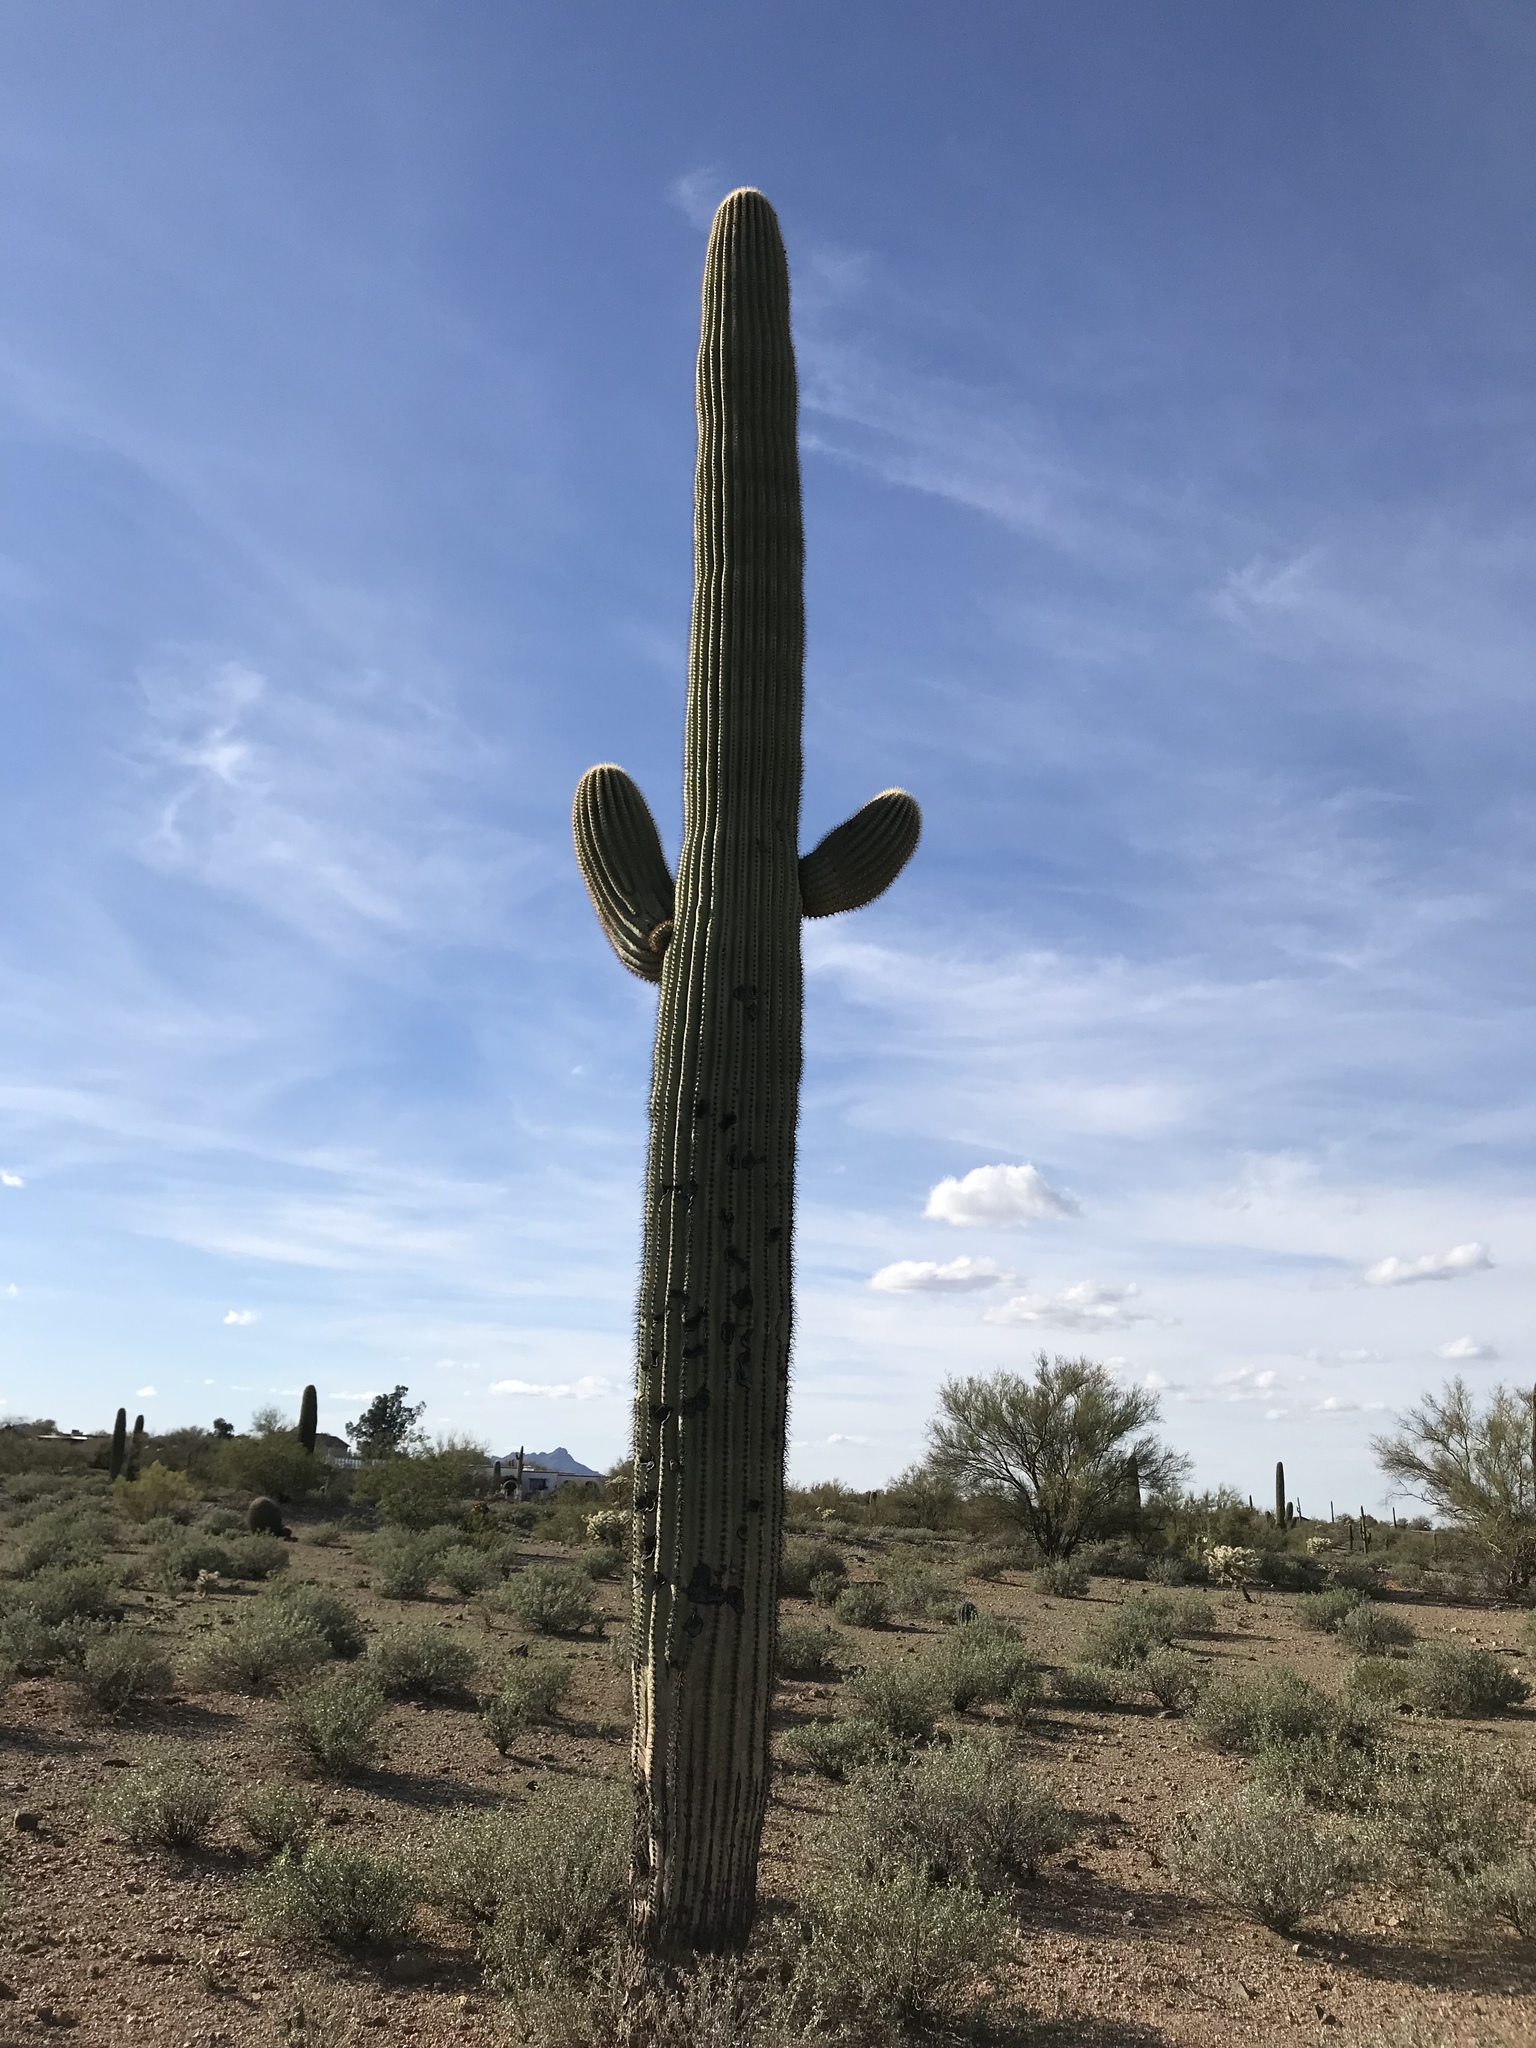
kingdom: Plantae
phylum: Tracheophyta
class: Magnoliopsida
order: Caryophyllales
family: Cactaceae
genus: Carnegiea
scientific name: Carnegiea gigantea
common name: Saguaro
